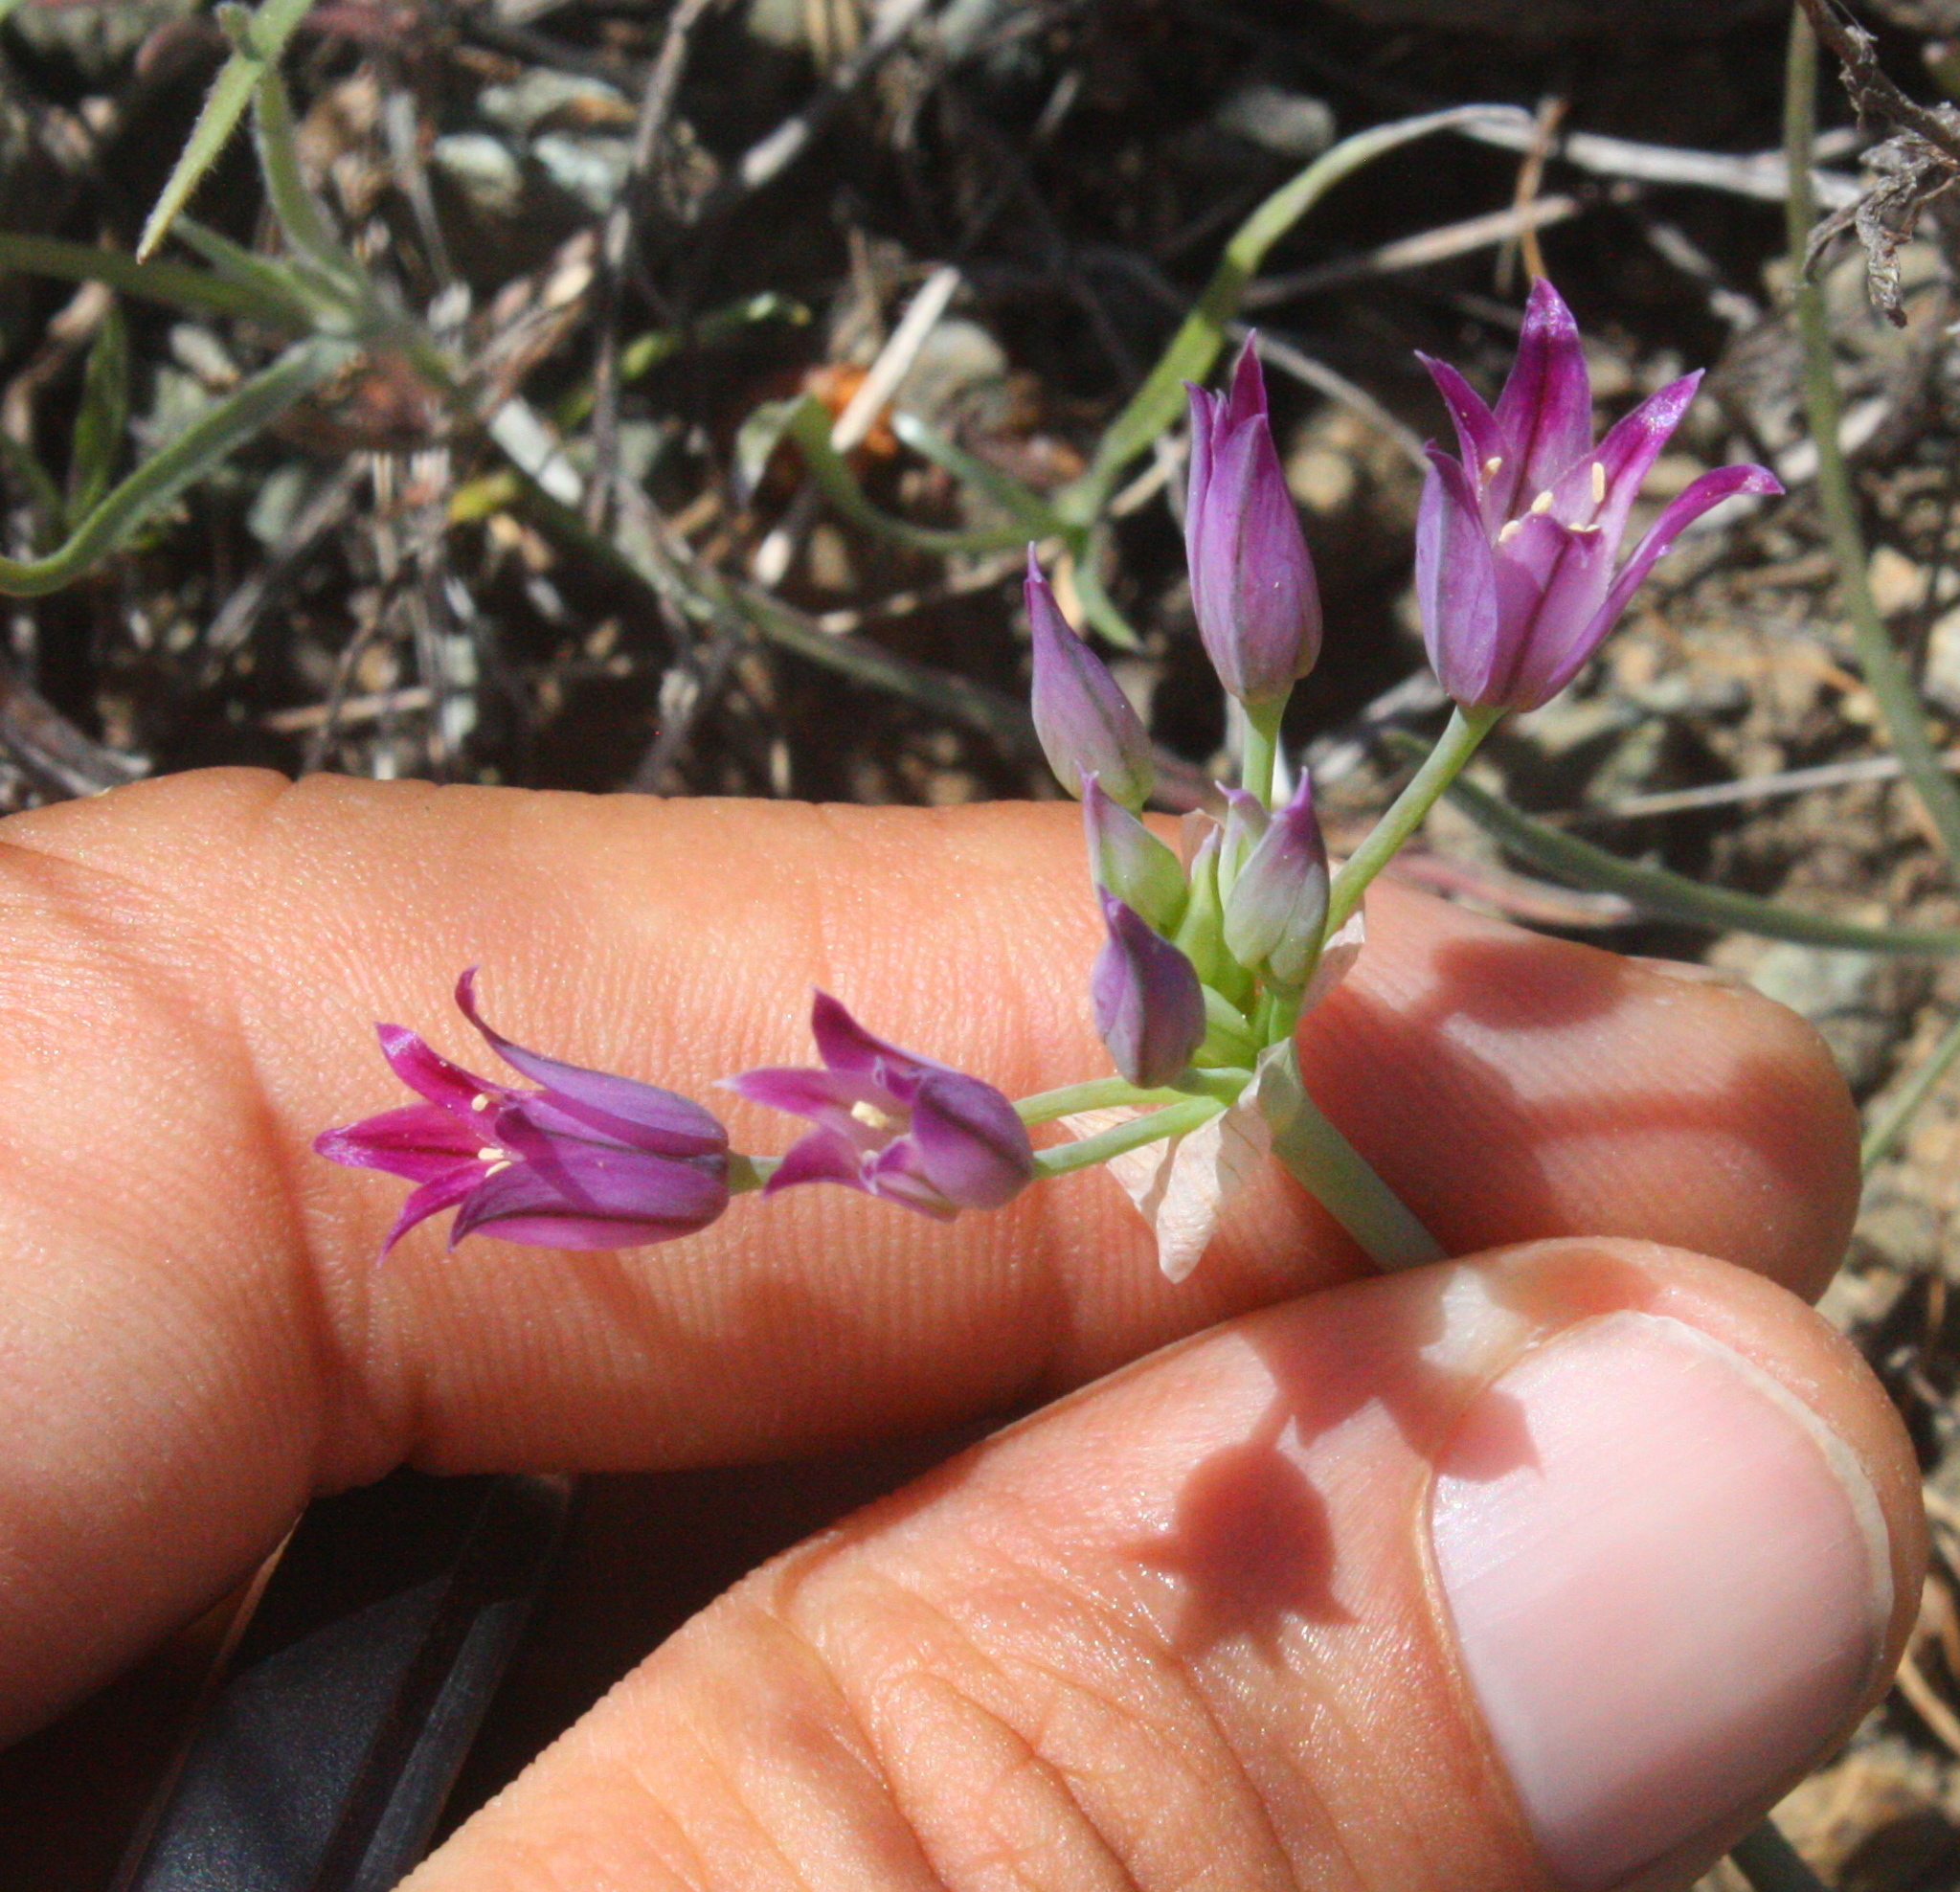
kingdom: Plantae
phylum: Tracheophyta
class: Liliopsida
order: Asparagales
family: Amaryllidaceae
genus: Allium
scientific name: Allium bolanderi
